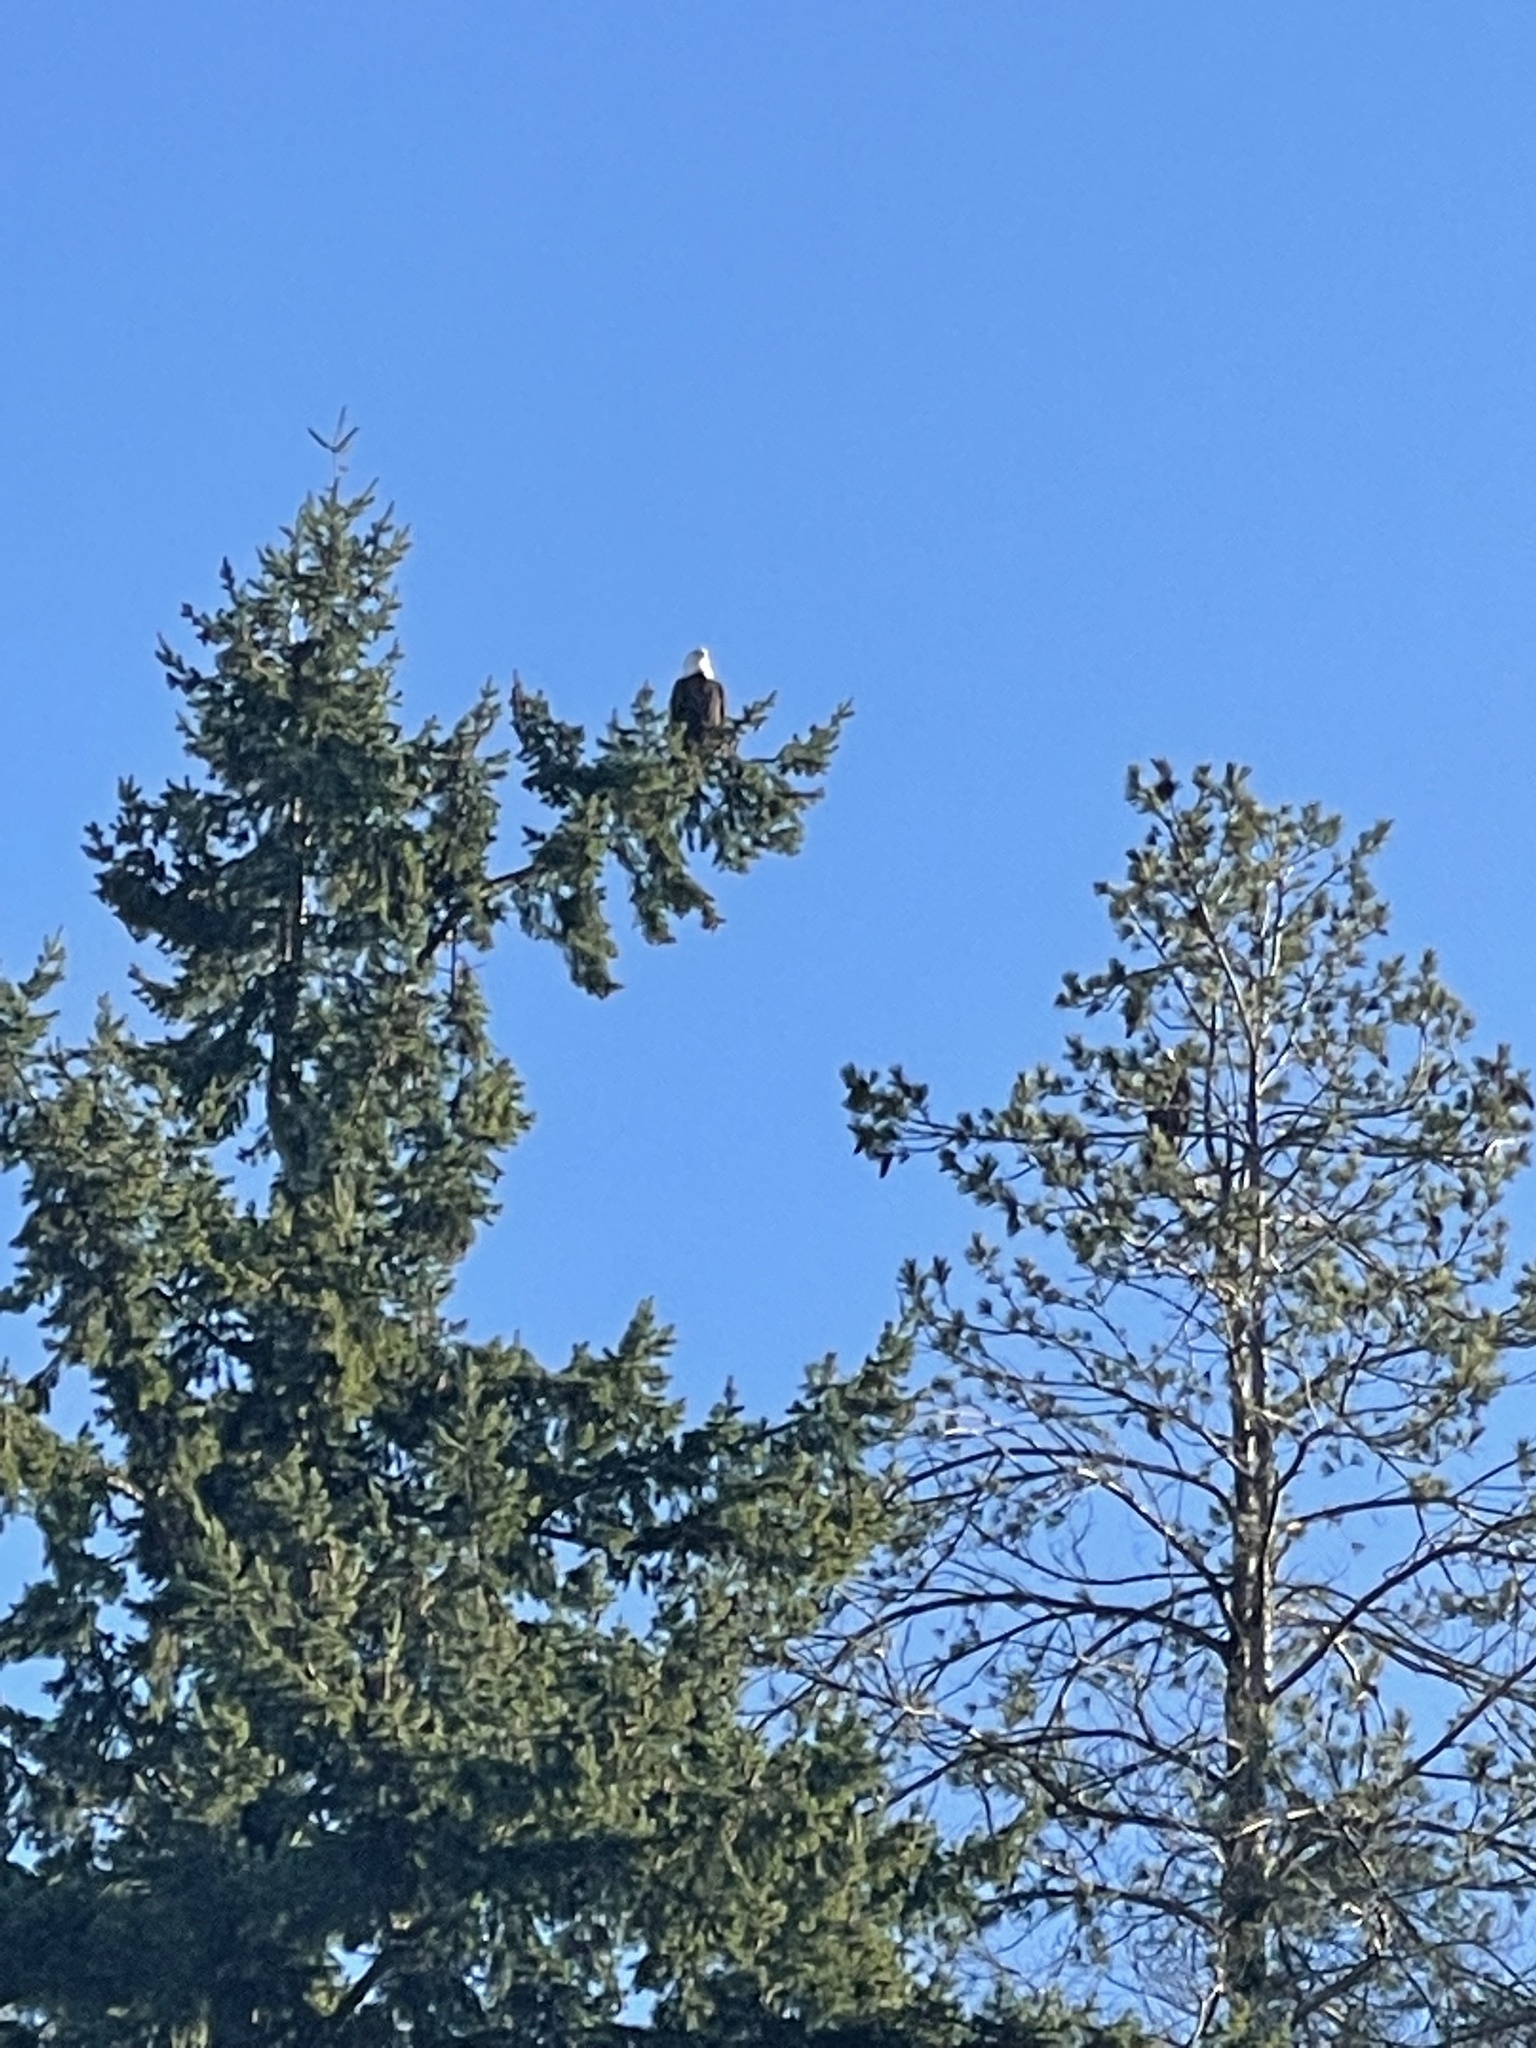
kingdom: Animalia
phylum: Chordata
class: Aves
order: Accipitriformes
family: Accipitridae
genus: Haliaeetus
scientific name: Haliaeetus leucocephalus
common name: Bald eagle
